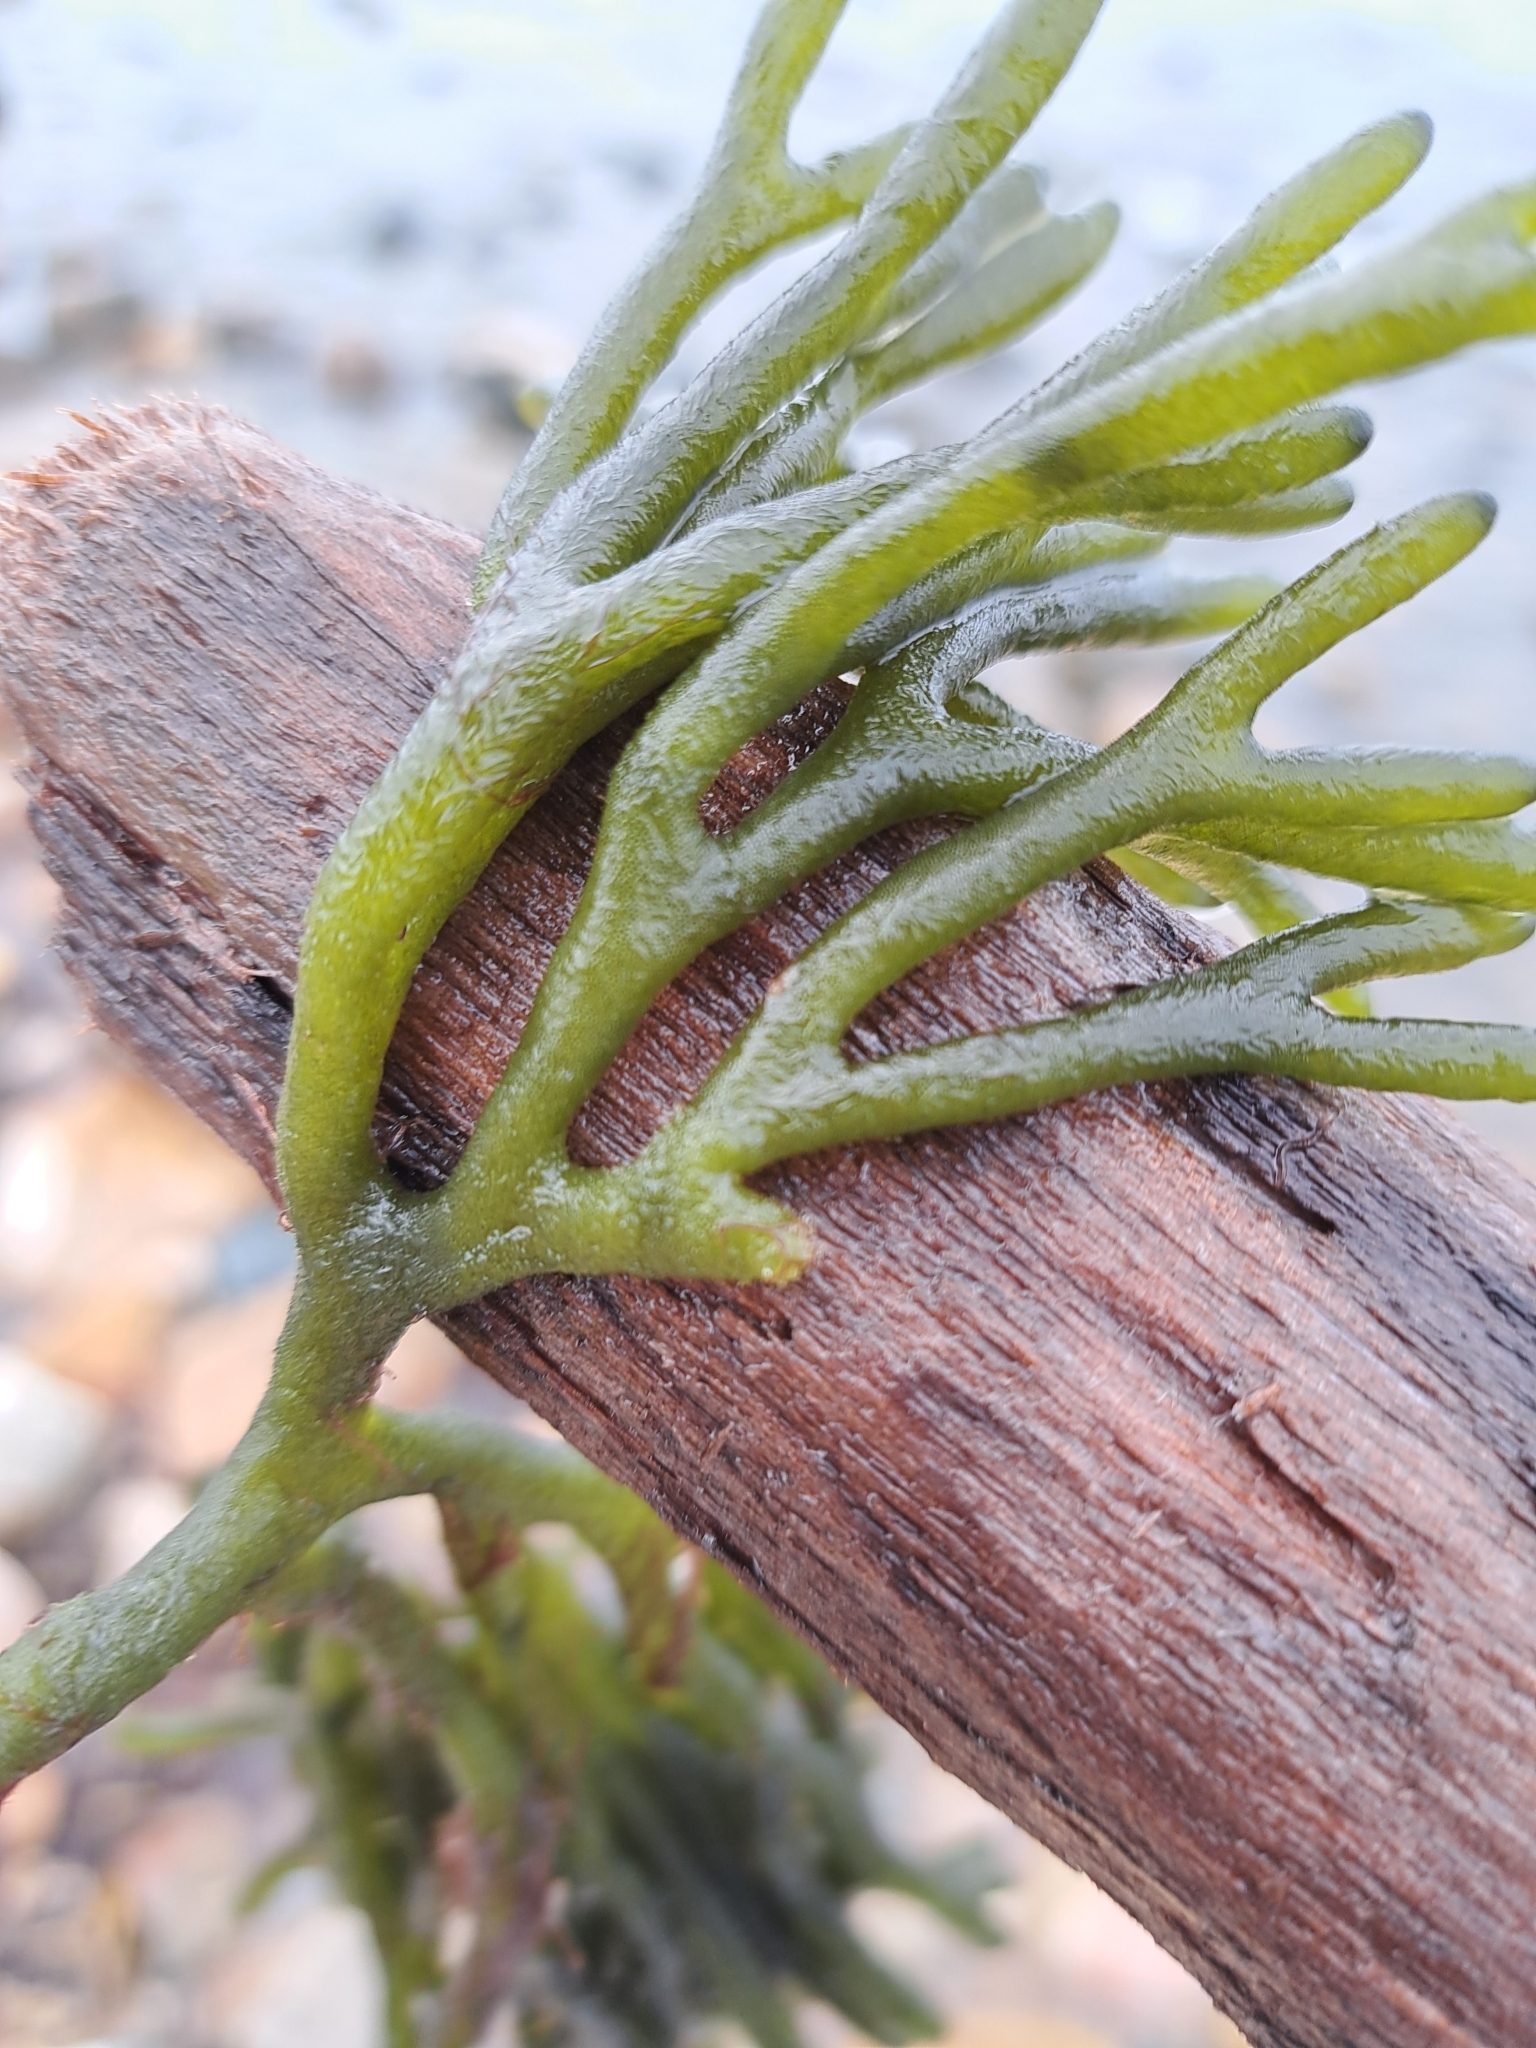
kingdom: Plantae
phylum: Chlorophyta
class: Ulvophyceae
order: Bryopsidales
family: Codiaceae
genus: Codium
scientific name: Codium fragile
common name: Dead man's fingers
